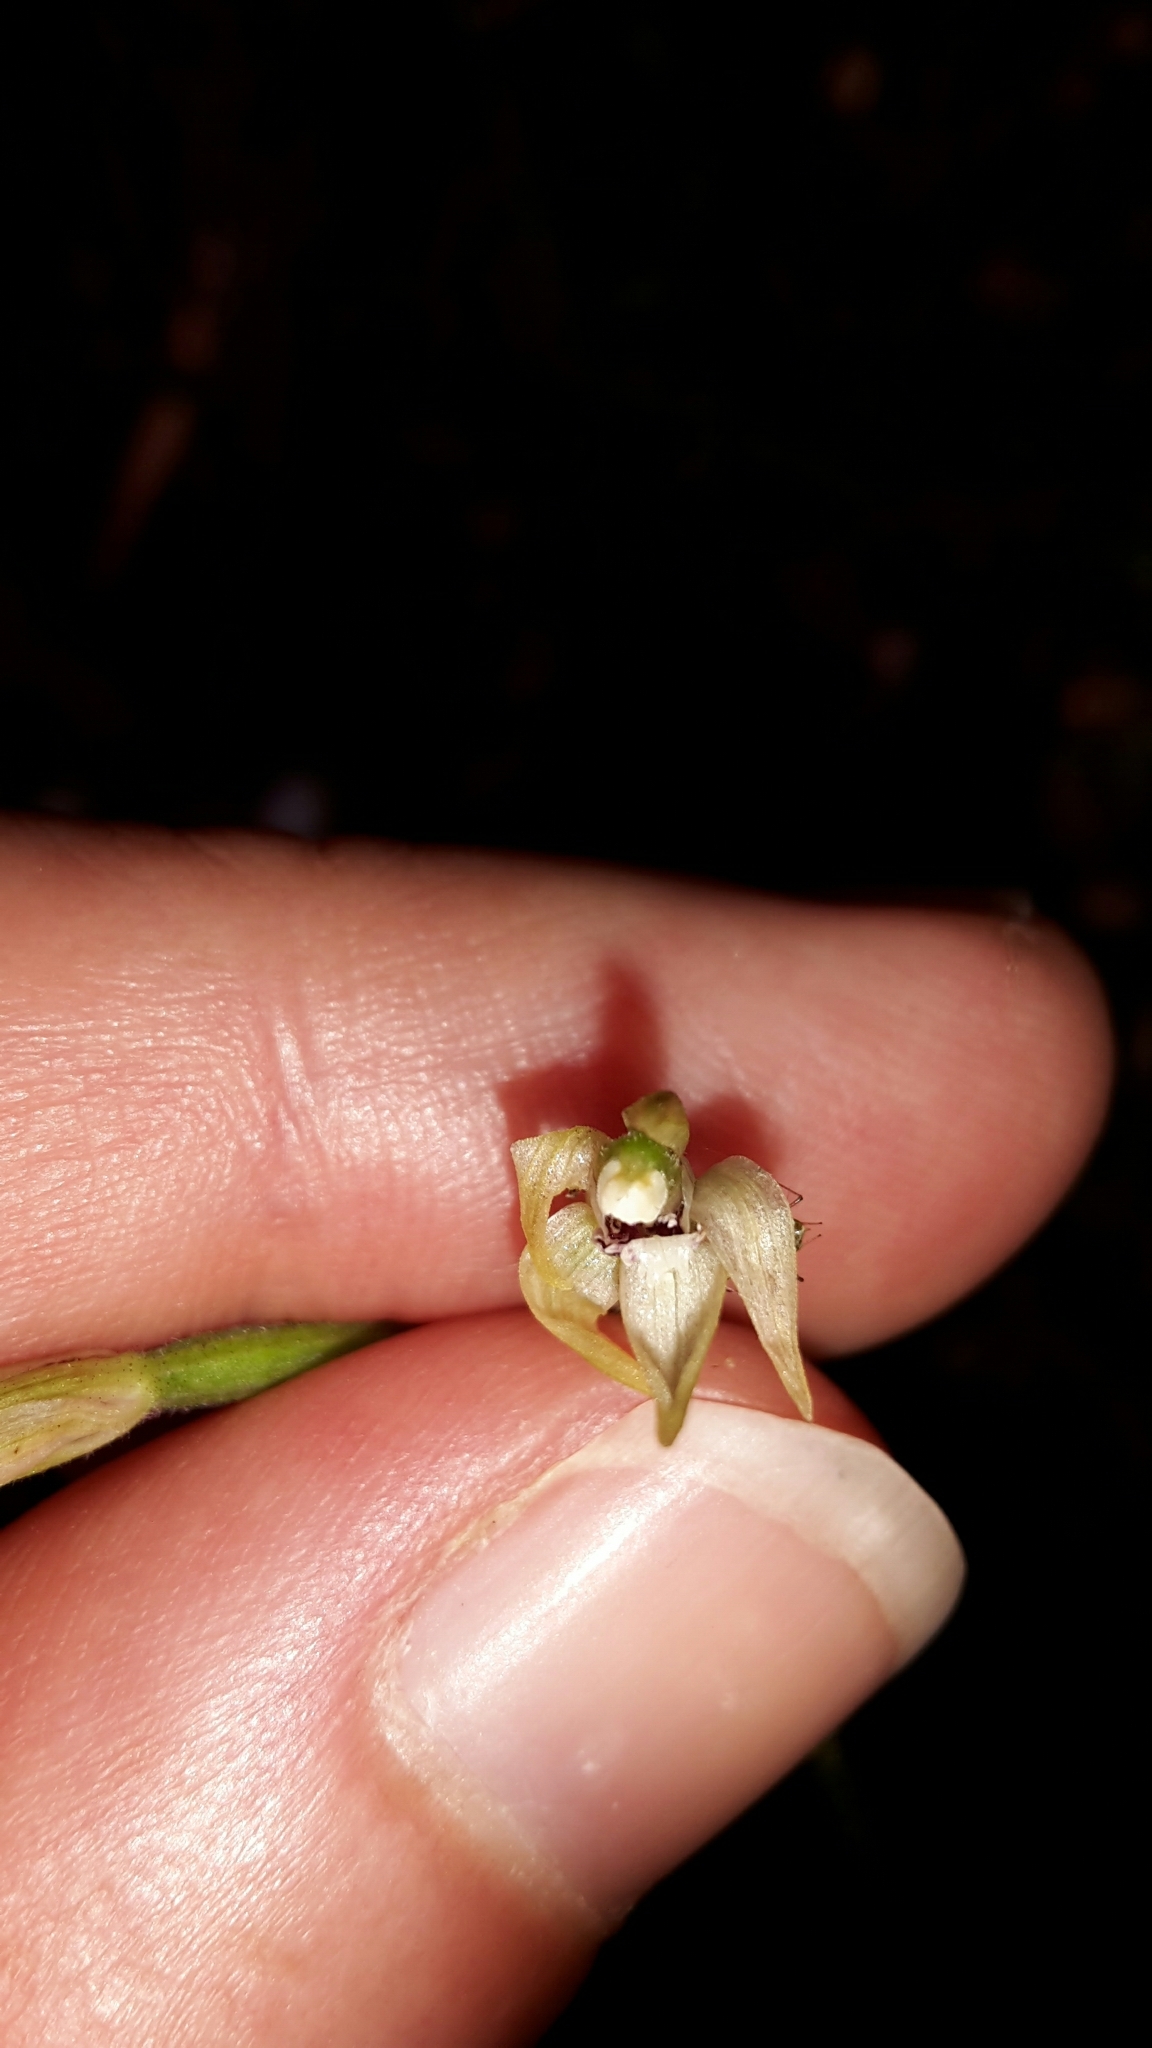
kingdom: Plantae
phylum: Tracheophyta
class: Liliopsida
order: Asparagales
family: Orchidaceae
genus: Caladenia
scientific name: Caladenia chlorostyla
